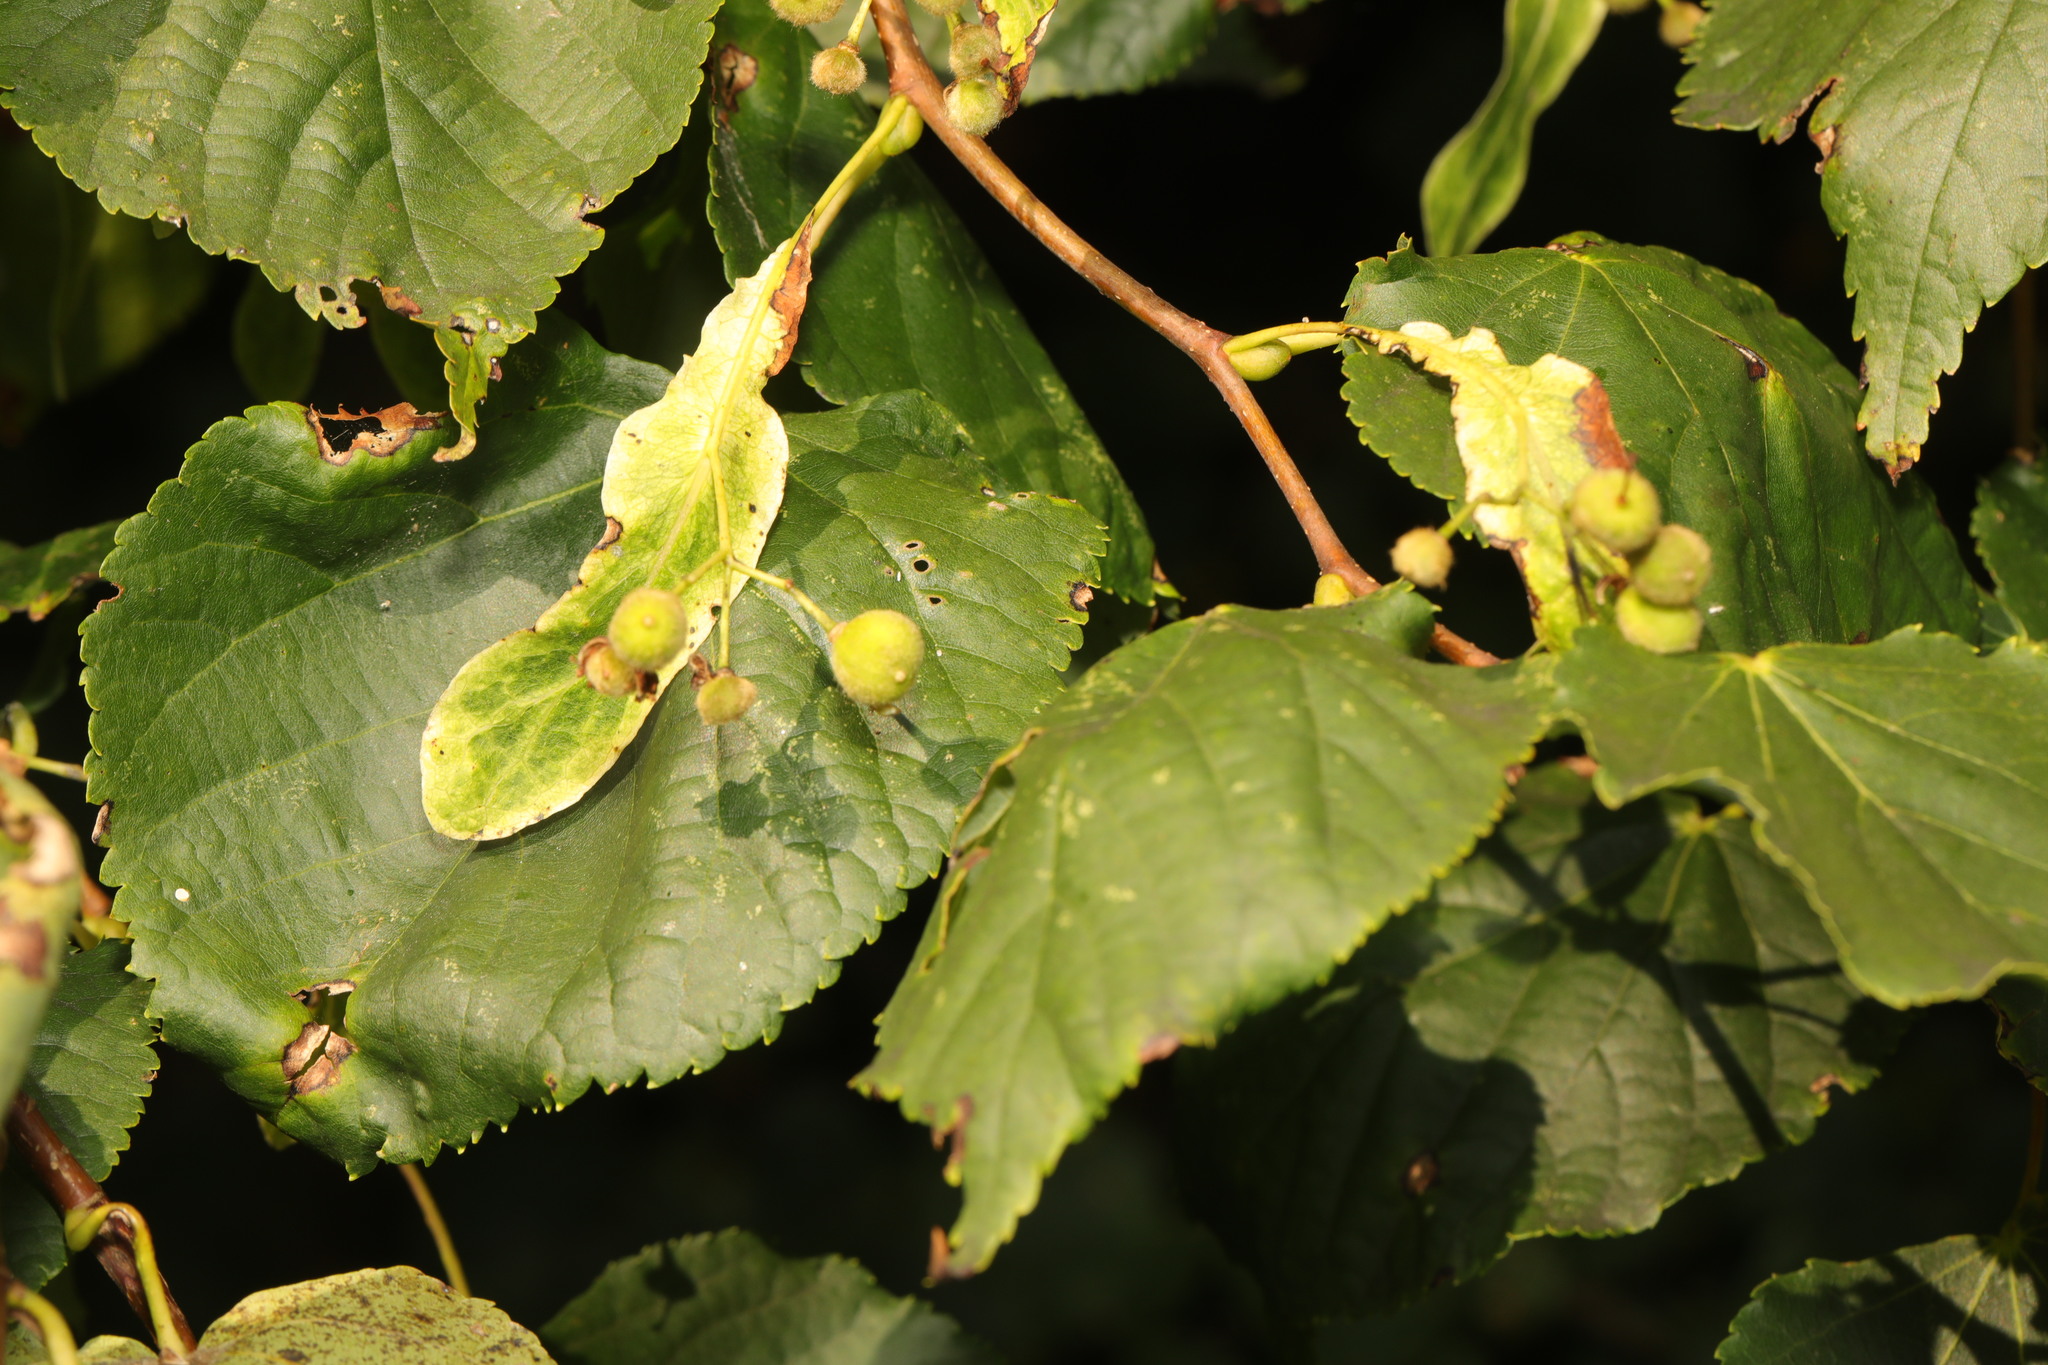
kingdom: Plantae
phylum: Tracheophyta
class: Magnoliopsida
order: Malvales
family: Malvaceae
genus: Tilia
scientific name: Tilia europaea
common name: European linden
